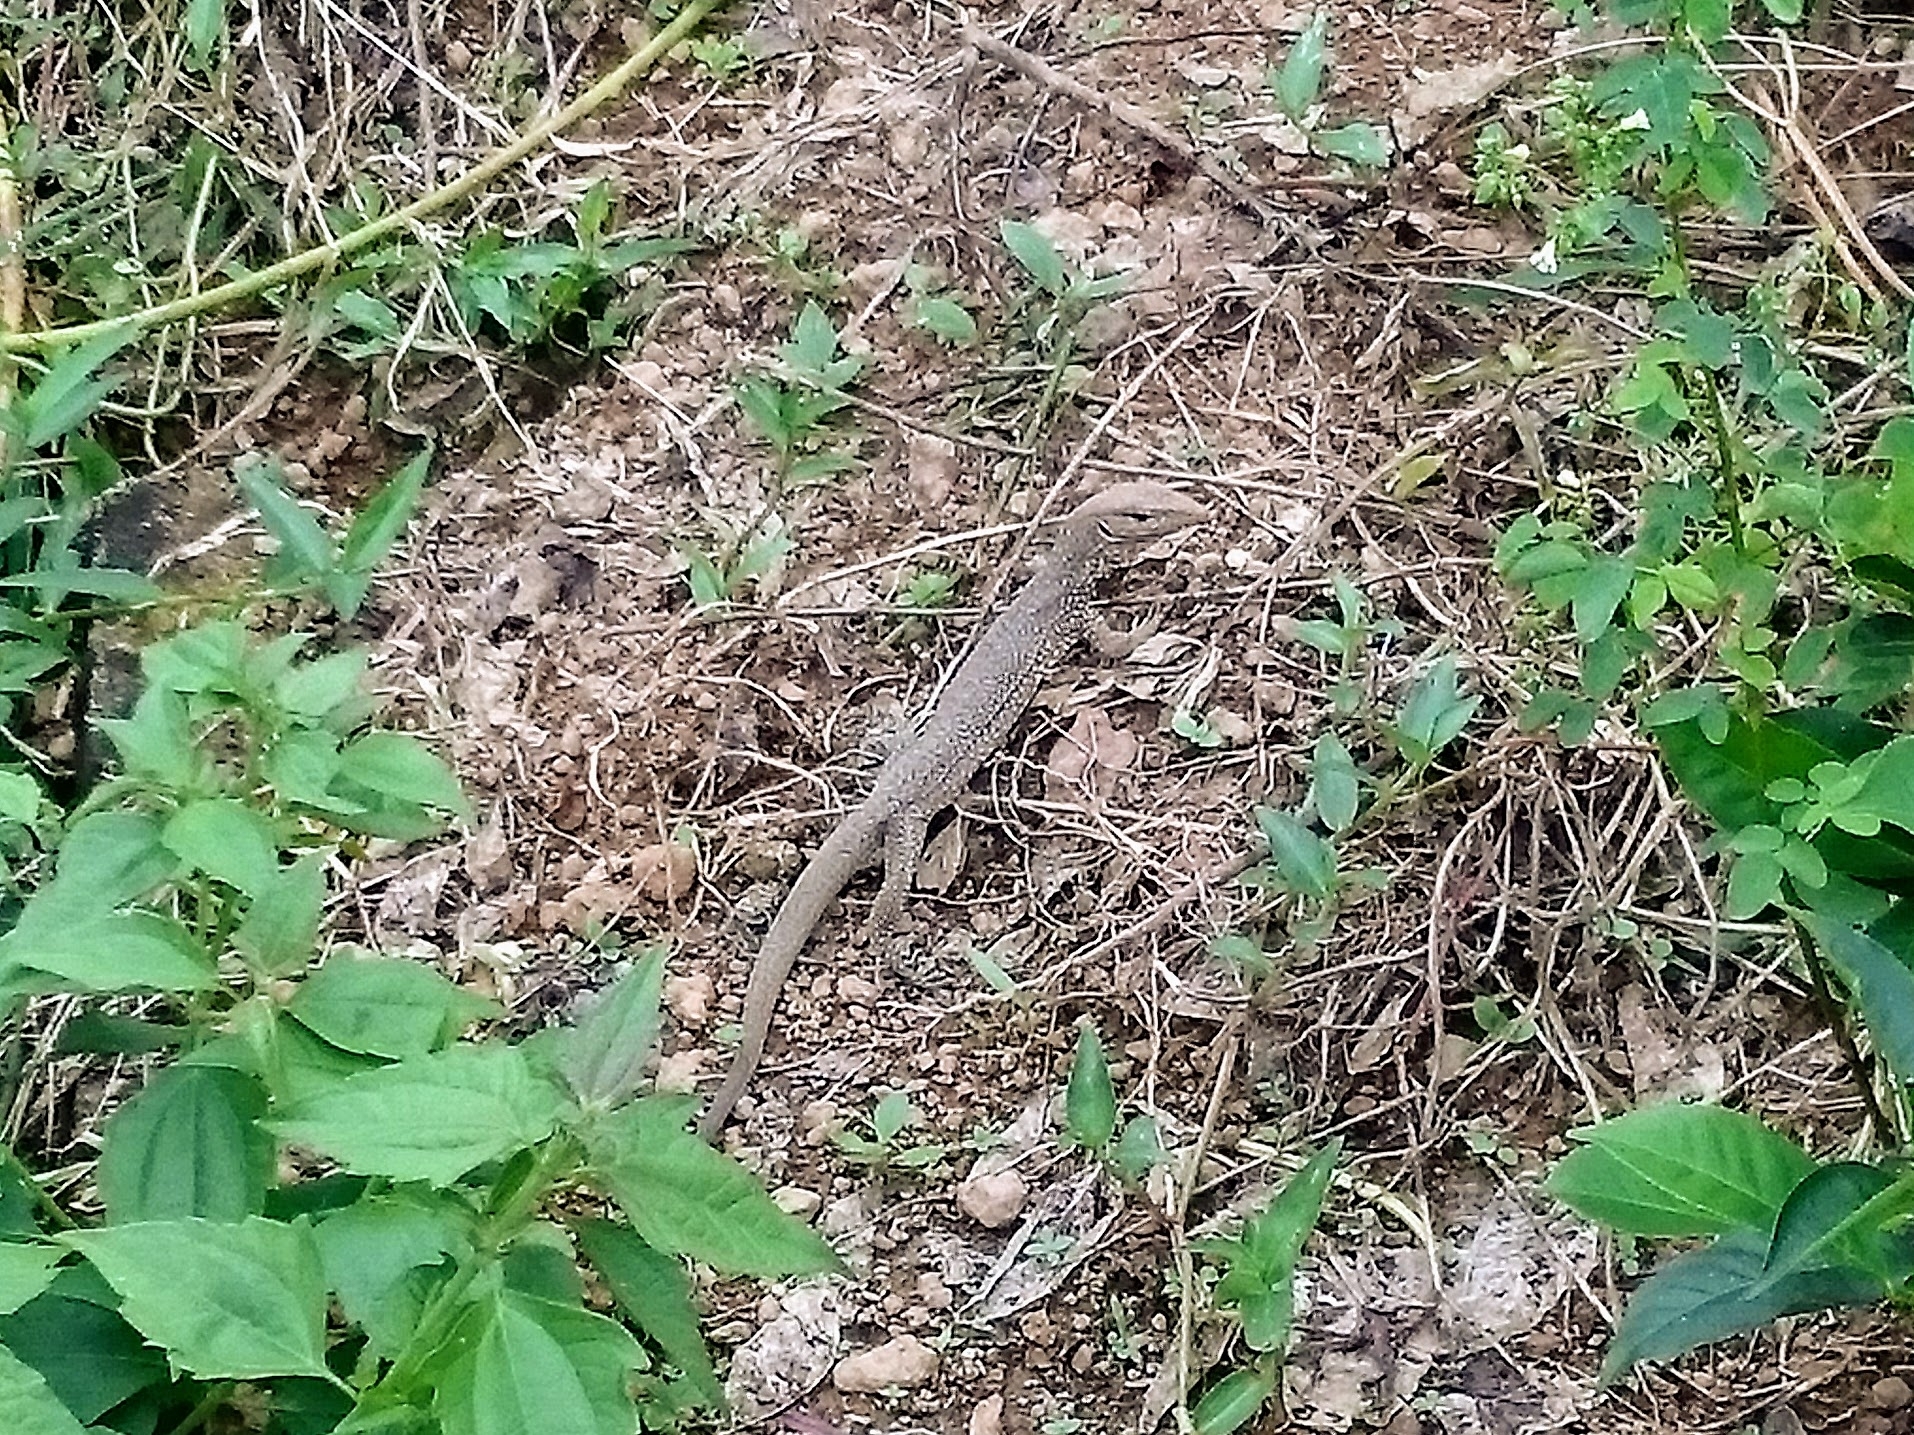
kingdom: Animalia
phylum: Chordata
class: Squamata
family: Varanidae
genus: Varanus
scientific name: Varanus bengalensis
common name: Bengal monitor
